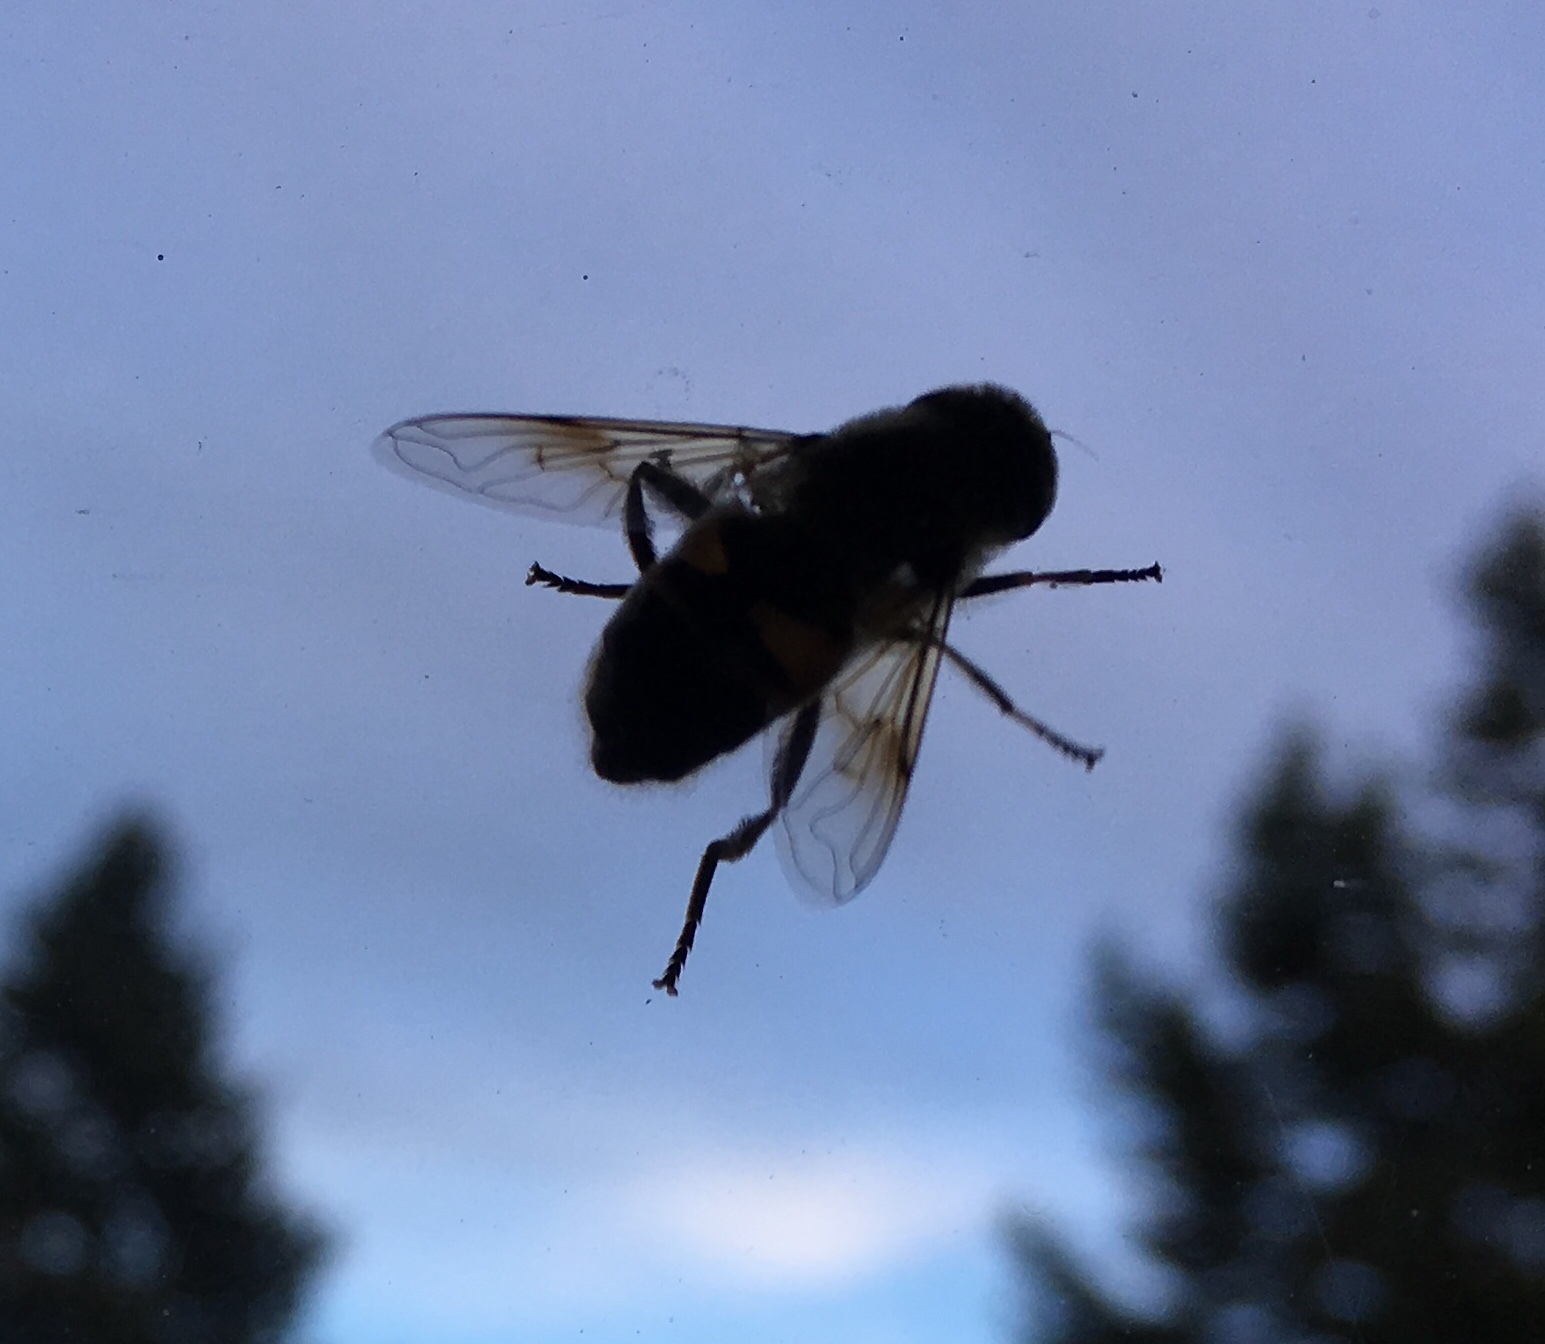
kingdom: Animalia
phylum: Arthropoda
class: Insecta
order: Diptera
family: Syrphidae
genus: Eristalis
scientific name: Eristalis tenax
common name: Drone fly
